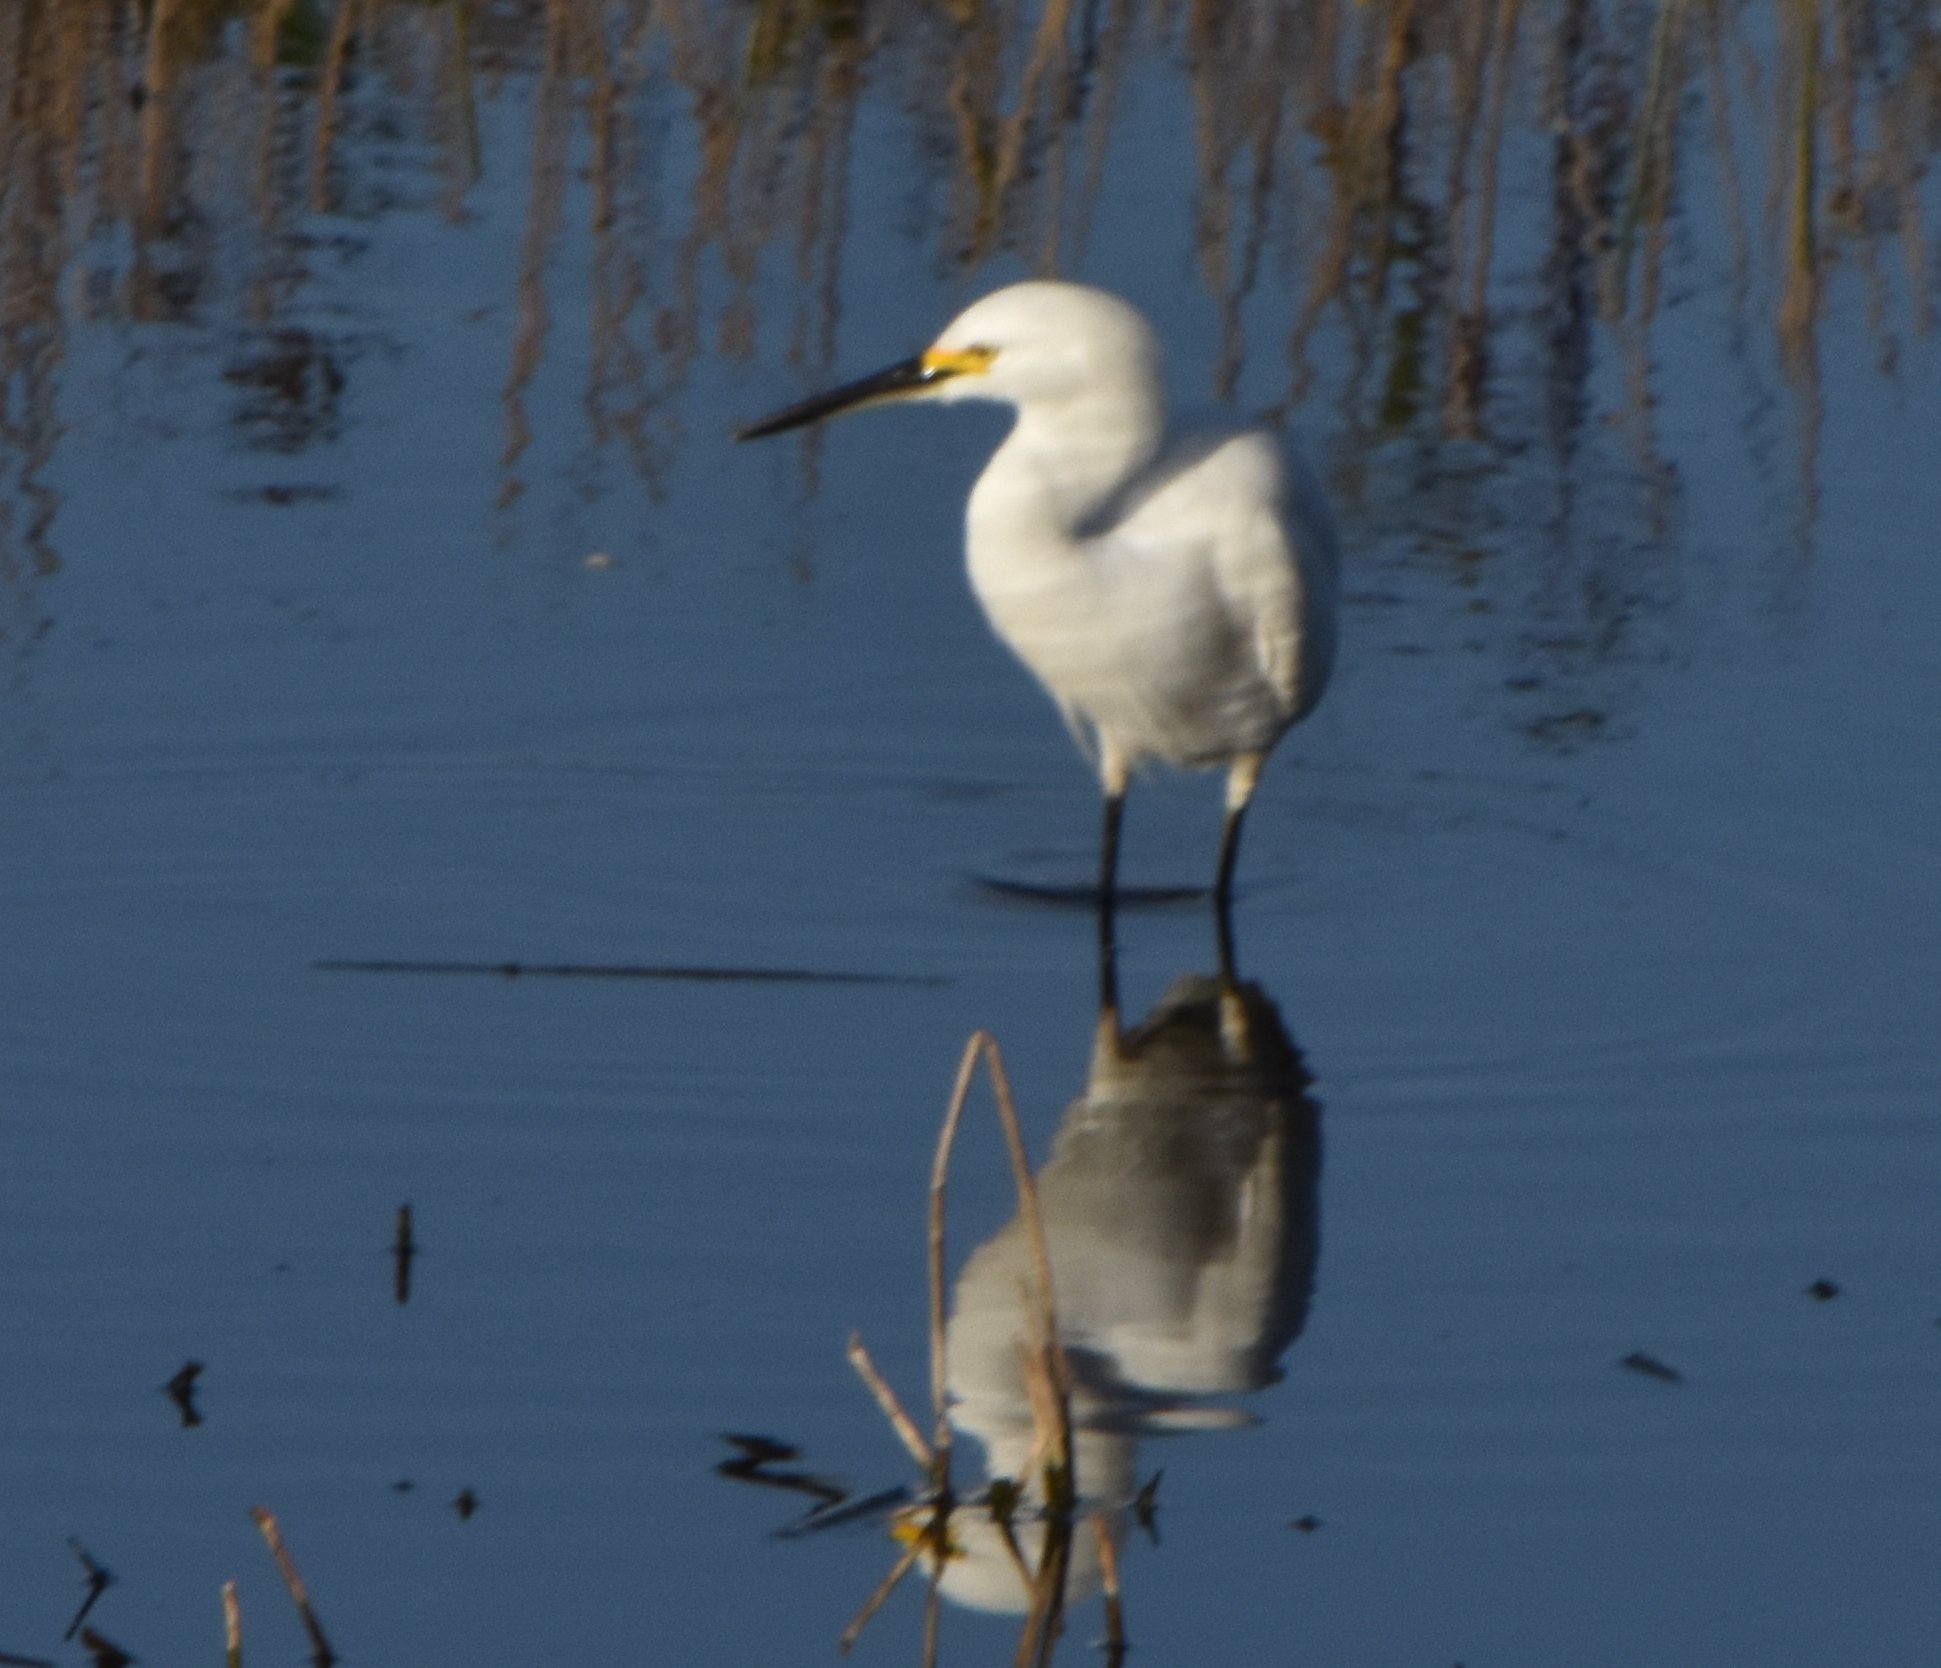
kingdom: Animalia
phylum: Chordata
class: Aves
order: Pelecaniformes
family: Ardeidae
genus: Egretta
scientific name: Egretta thula
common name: Snowy egret
